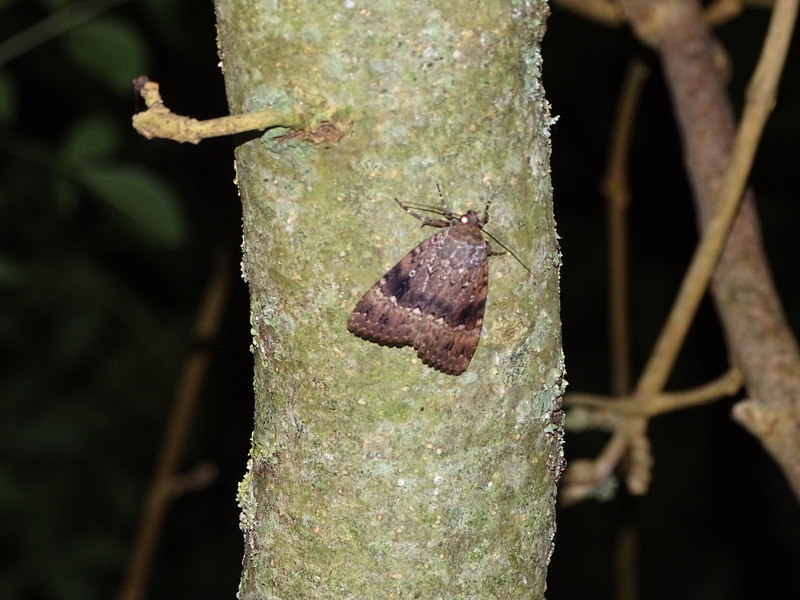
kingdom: Animalia
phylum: Arthropoda
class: Insecta
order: Lepidoptera
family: Noctuidae
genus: Amphipyra
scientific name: Amphipyra pyramidea
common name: Copper underwing
